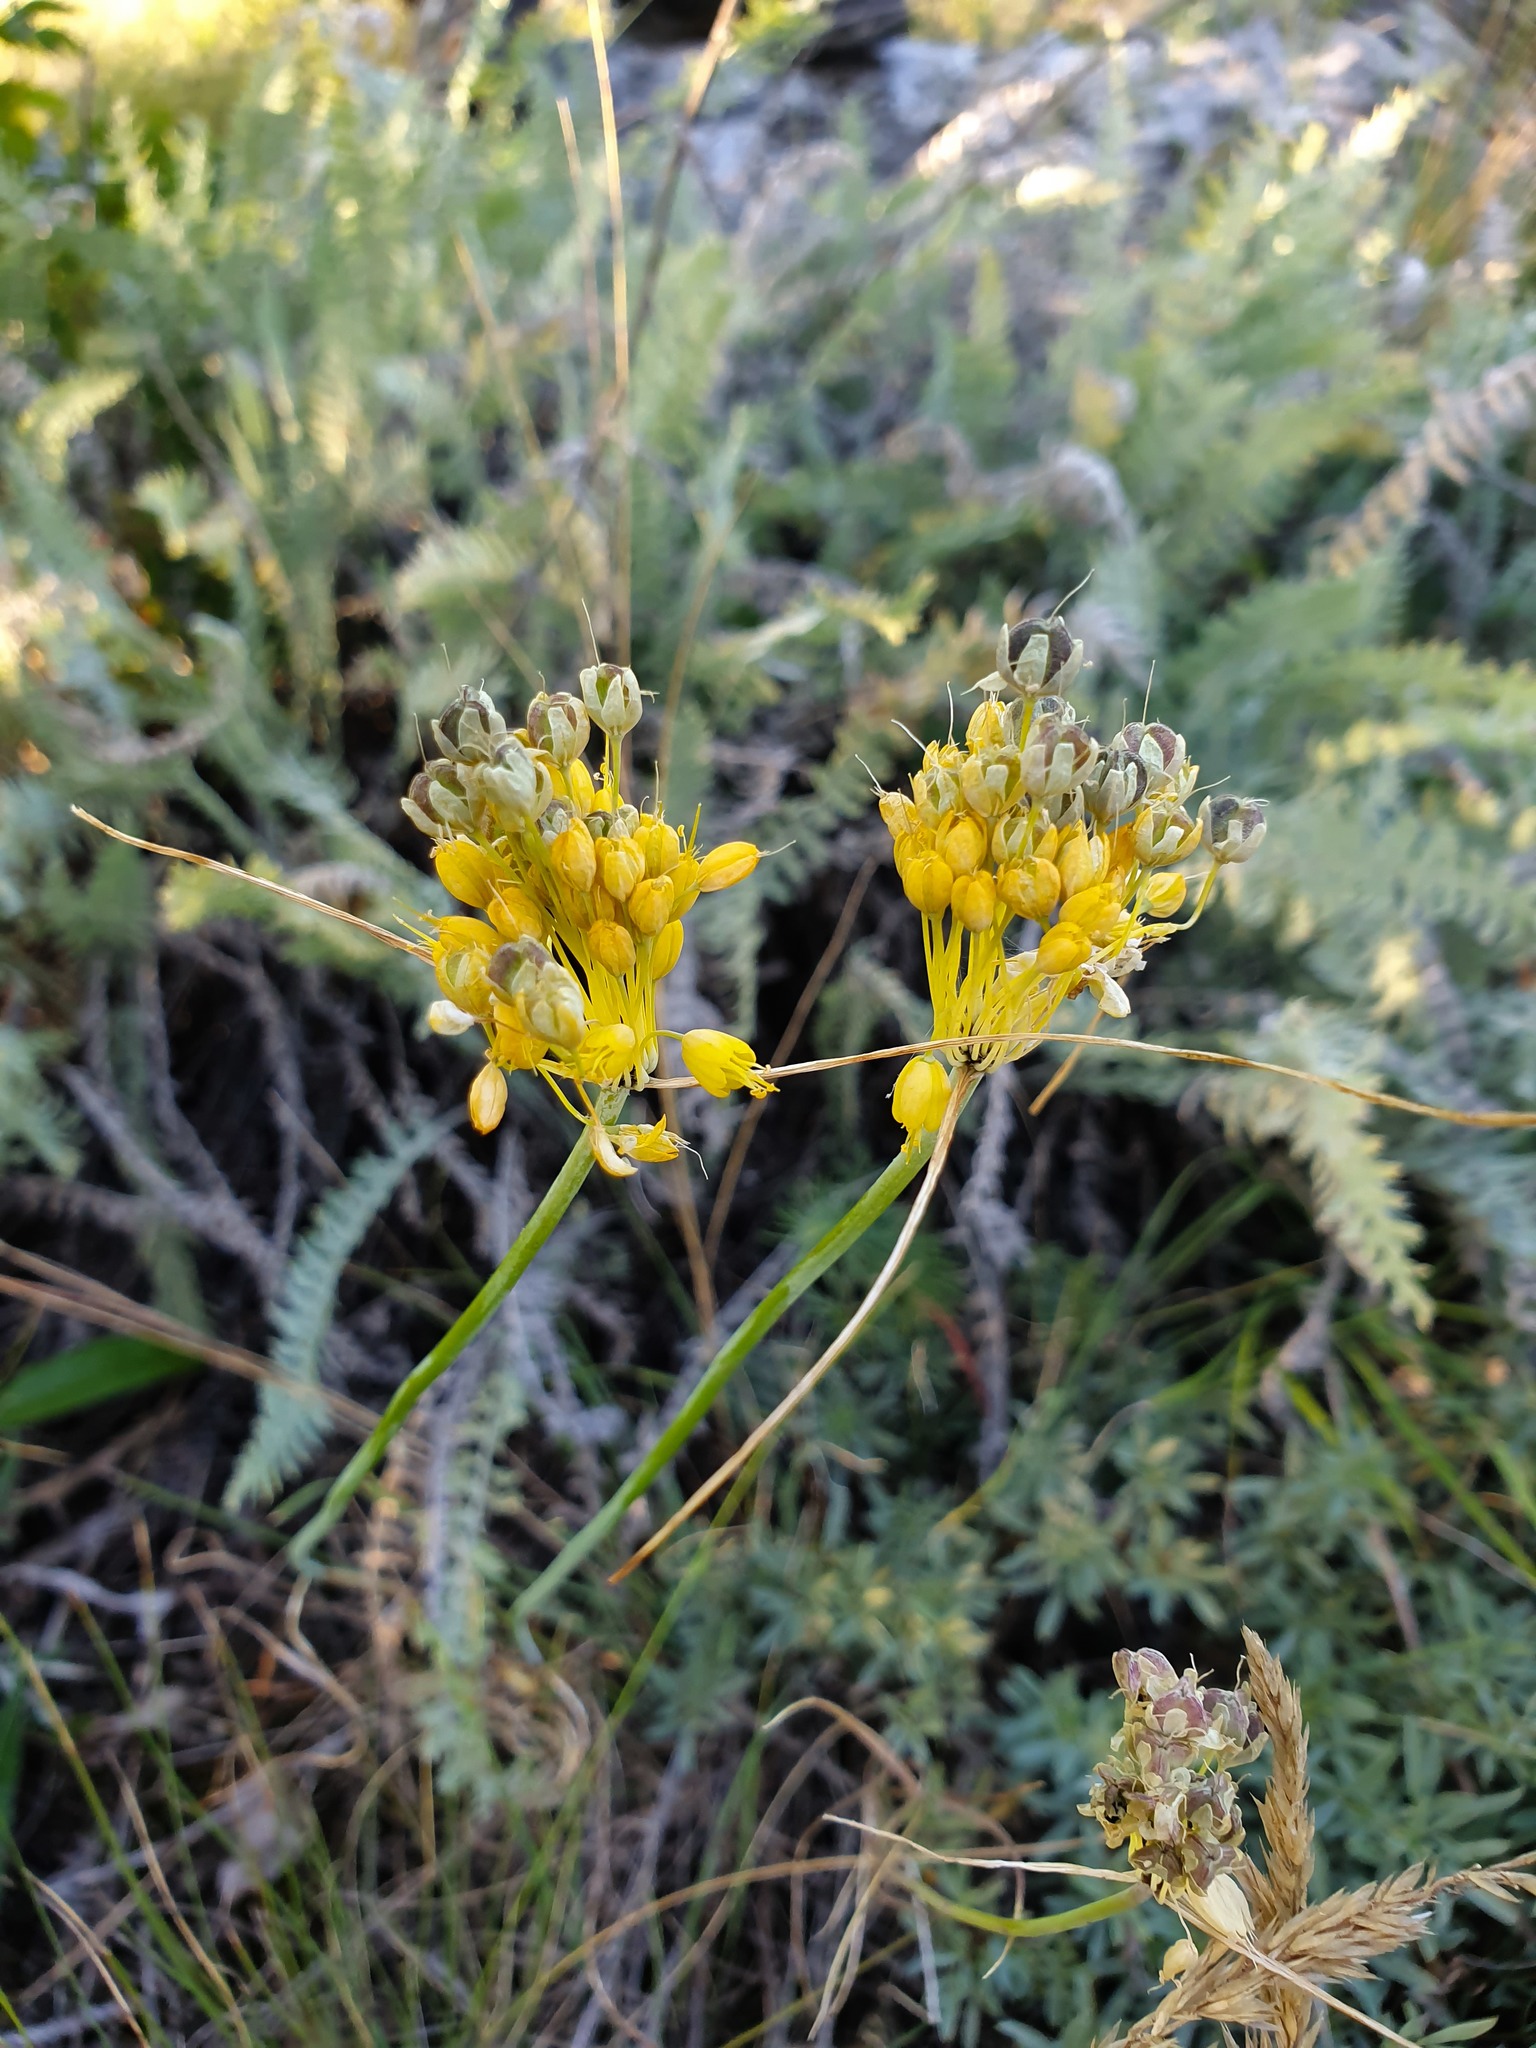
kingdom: Plantae
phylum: Tracheophyta
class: Liliopsida
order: Asparagales
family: Amaryllidaceae
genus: Allium
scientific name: Allium flavum
